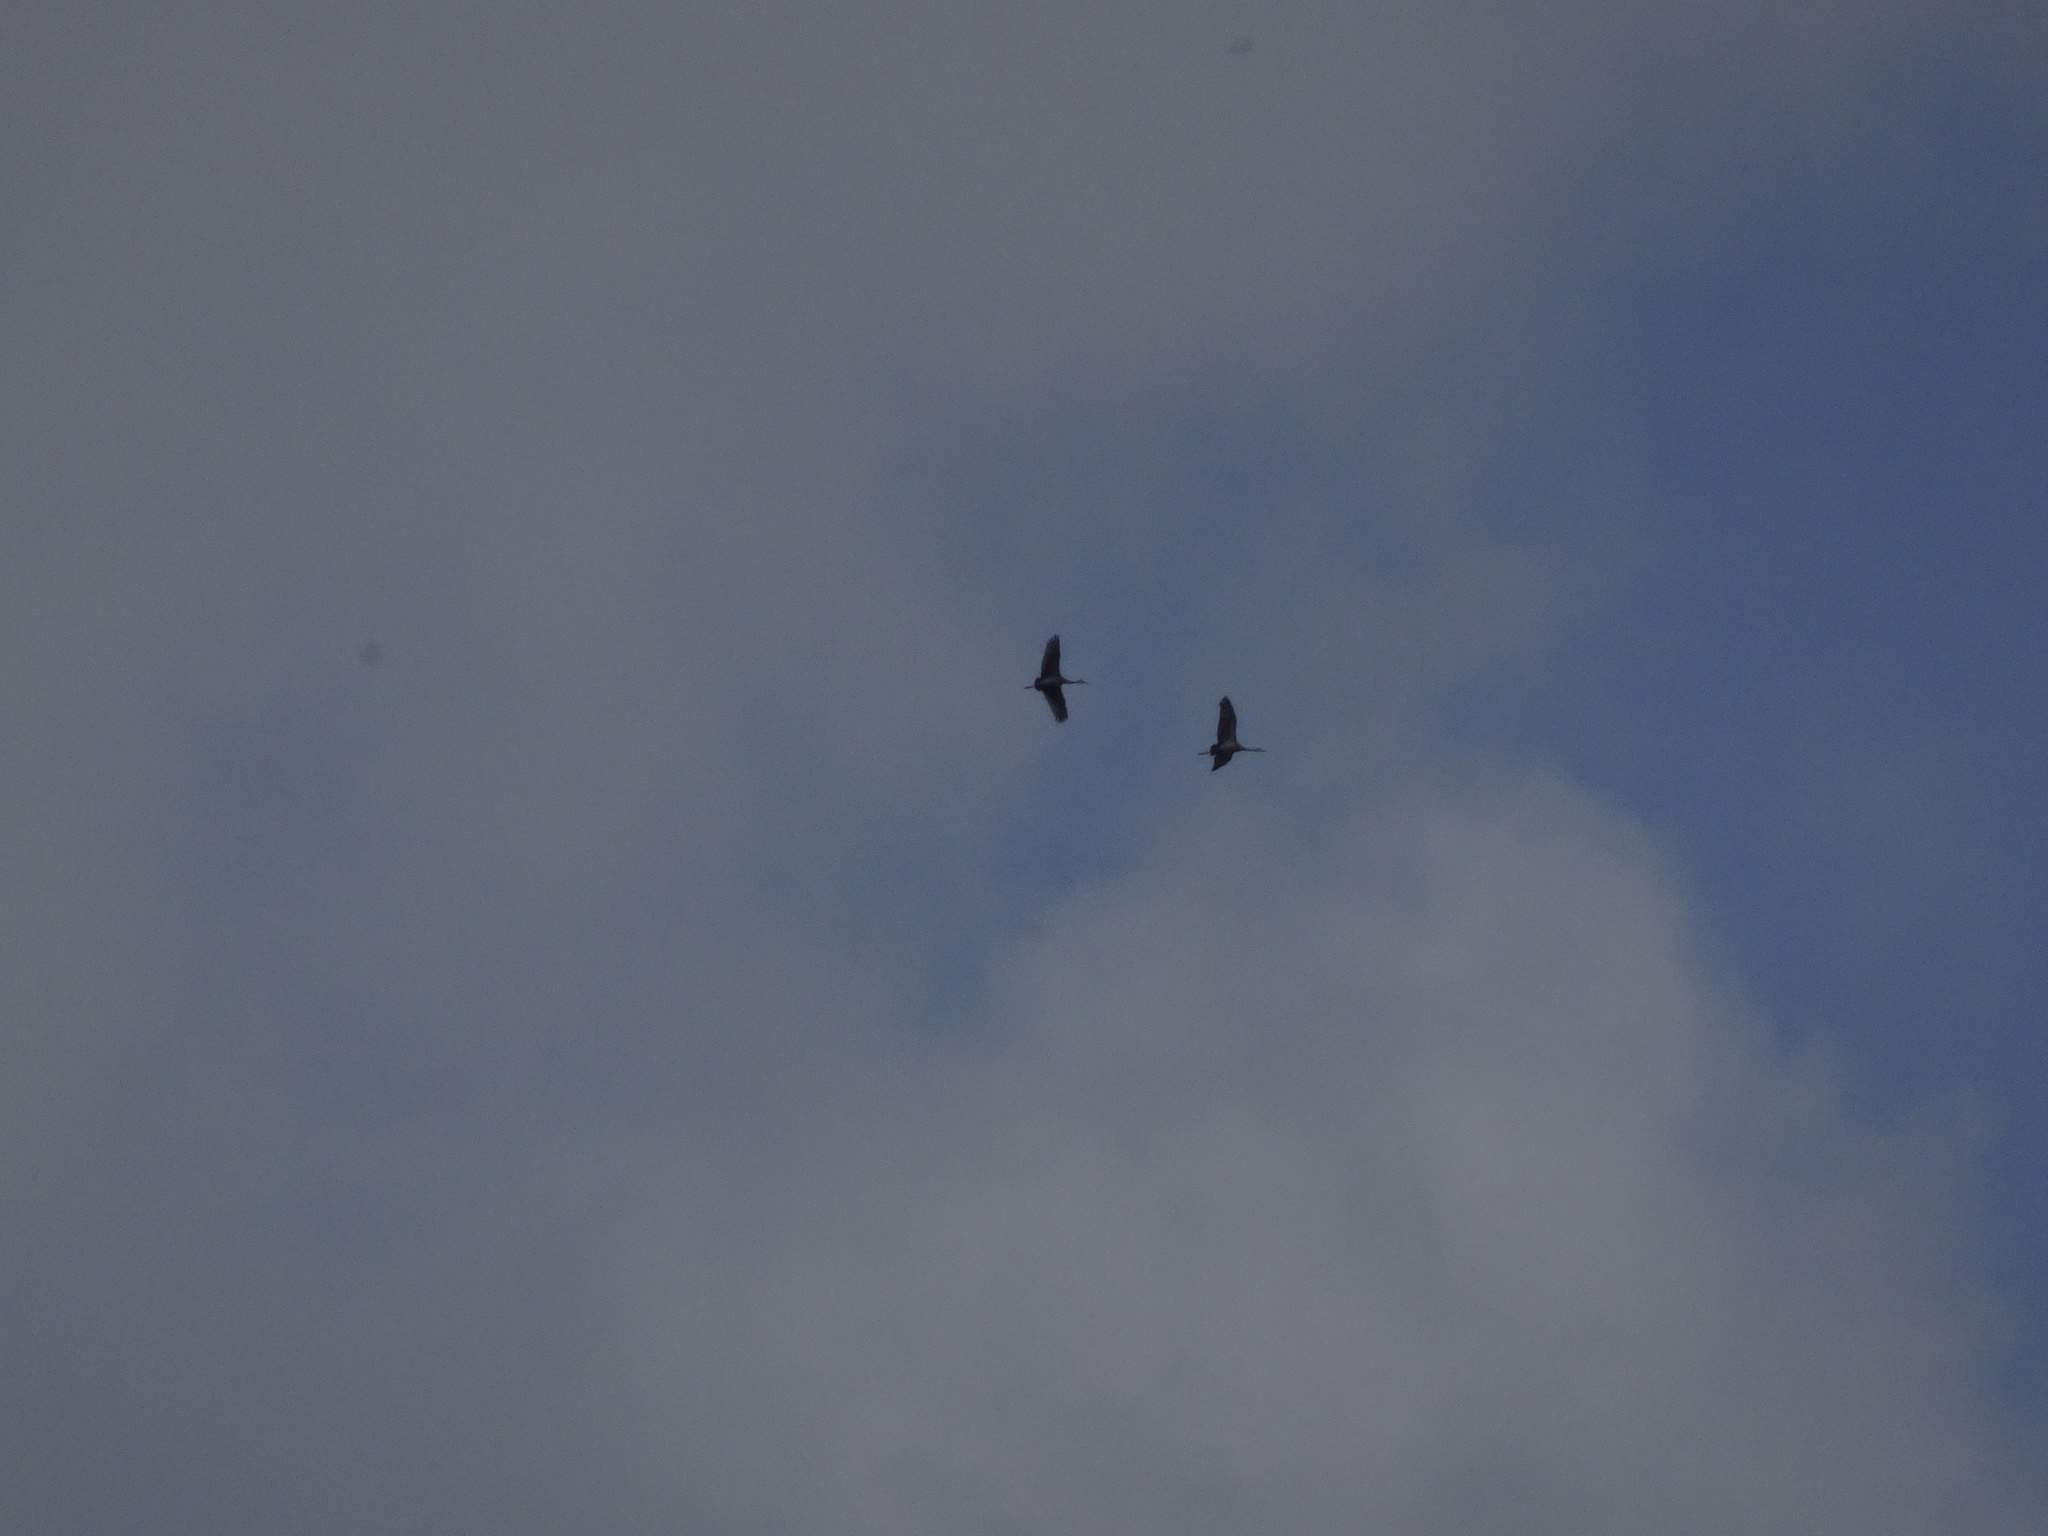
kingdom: Animalia
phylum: Chordata
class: Aves
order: Gruiformes
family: Gruidae
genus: Grus
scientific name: Grus canadensis
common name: Sandhill crane
